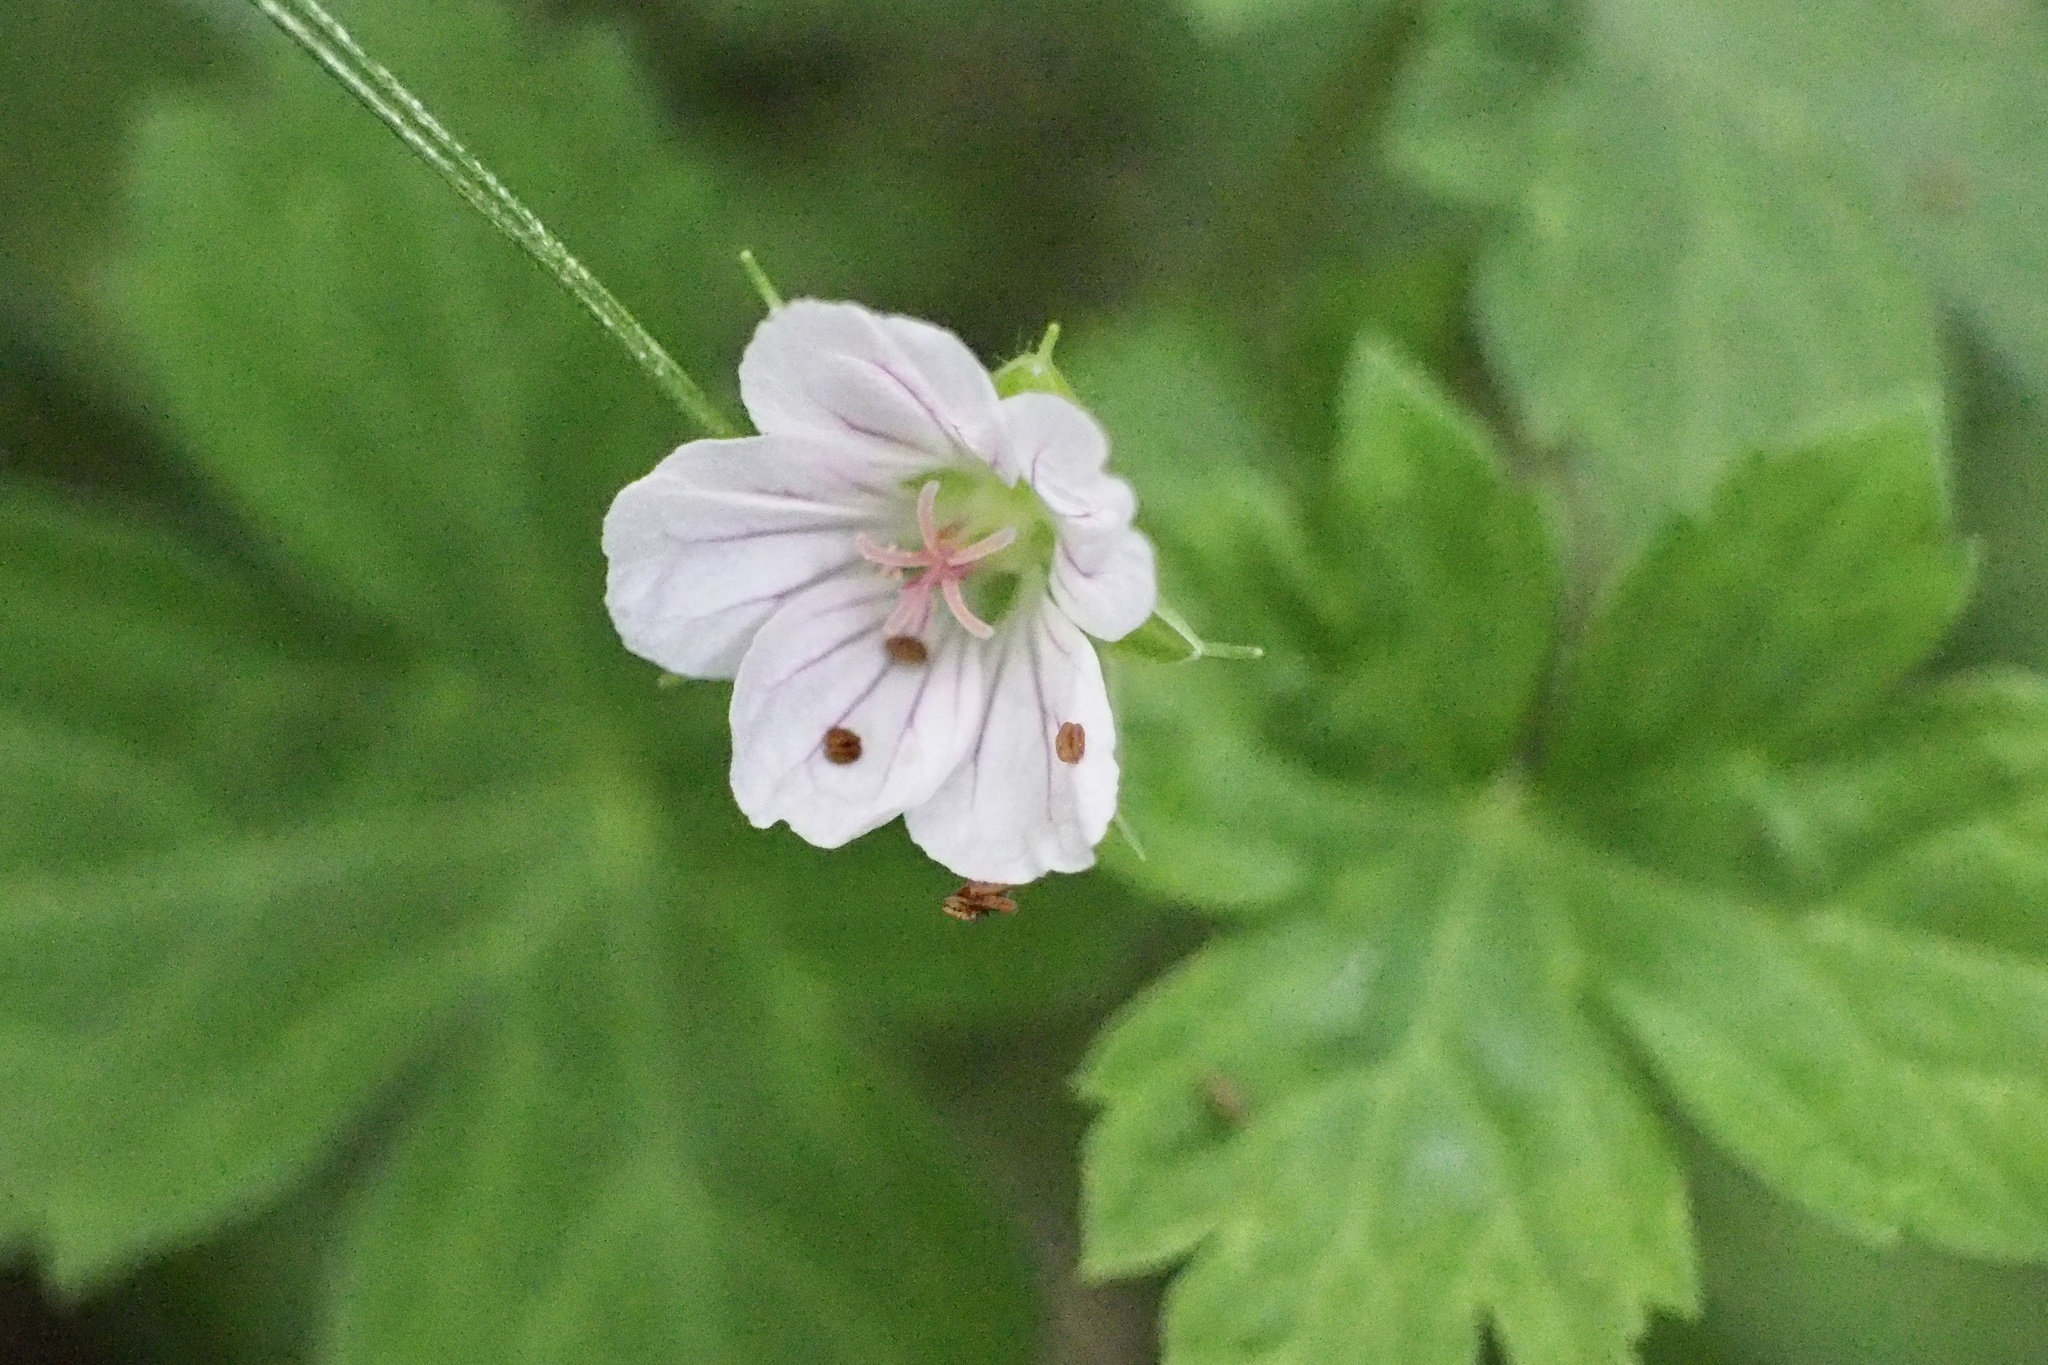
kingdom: Plantae
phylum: Tracheophyta
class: Magnoliopsida
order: Geraniales
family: Geraniaceae
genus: Geranium
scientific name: Geranium thunbergii
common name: Dewdrop crane's-bill
